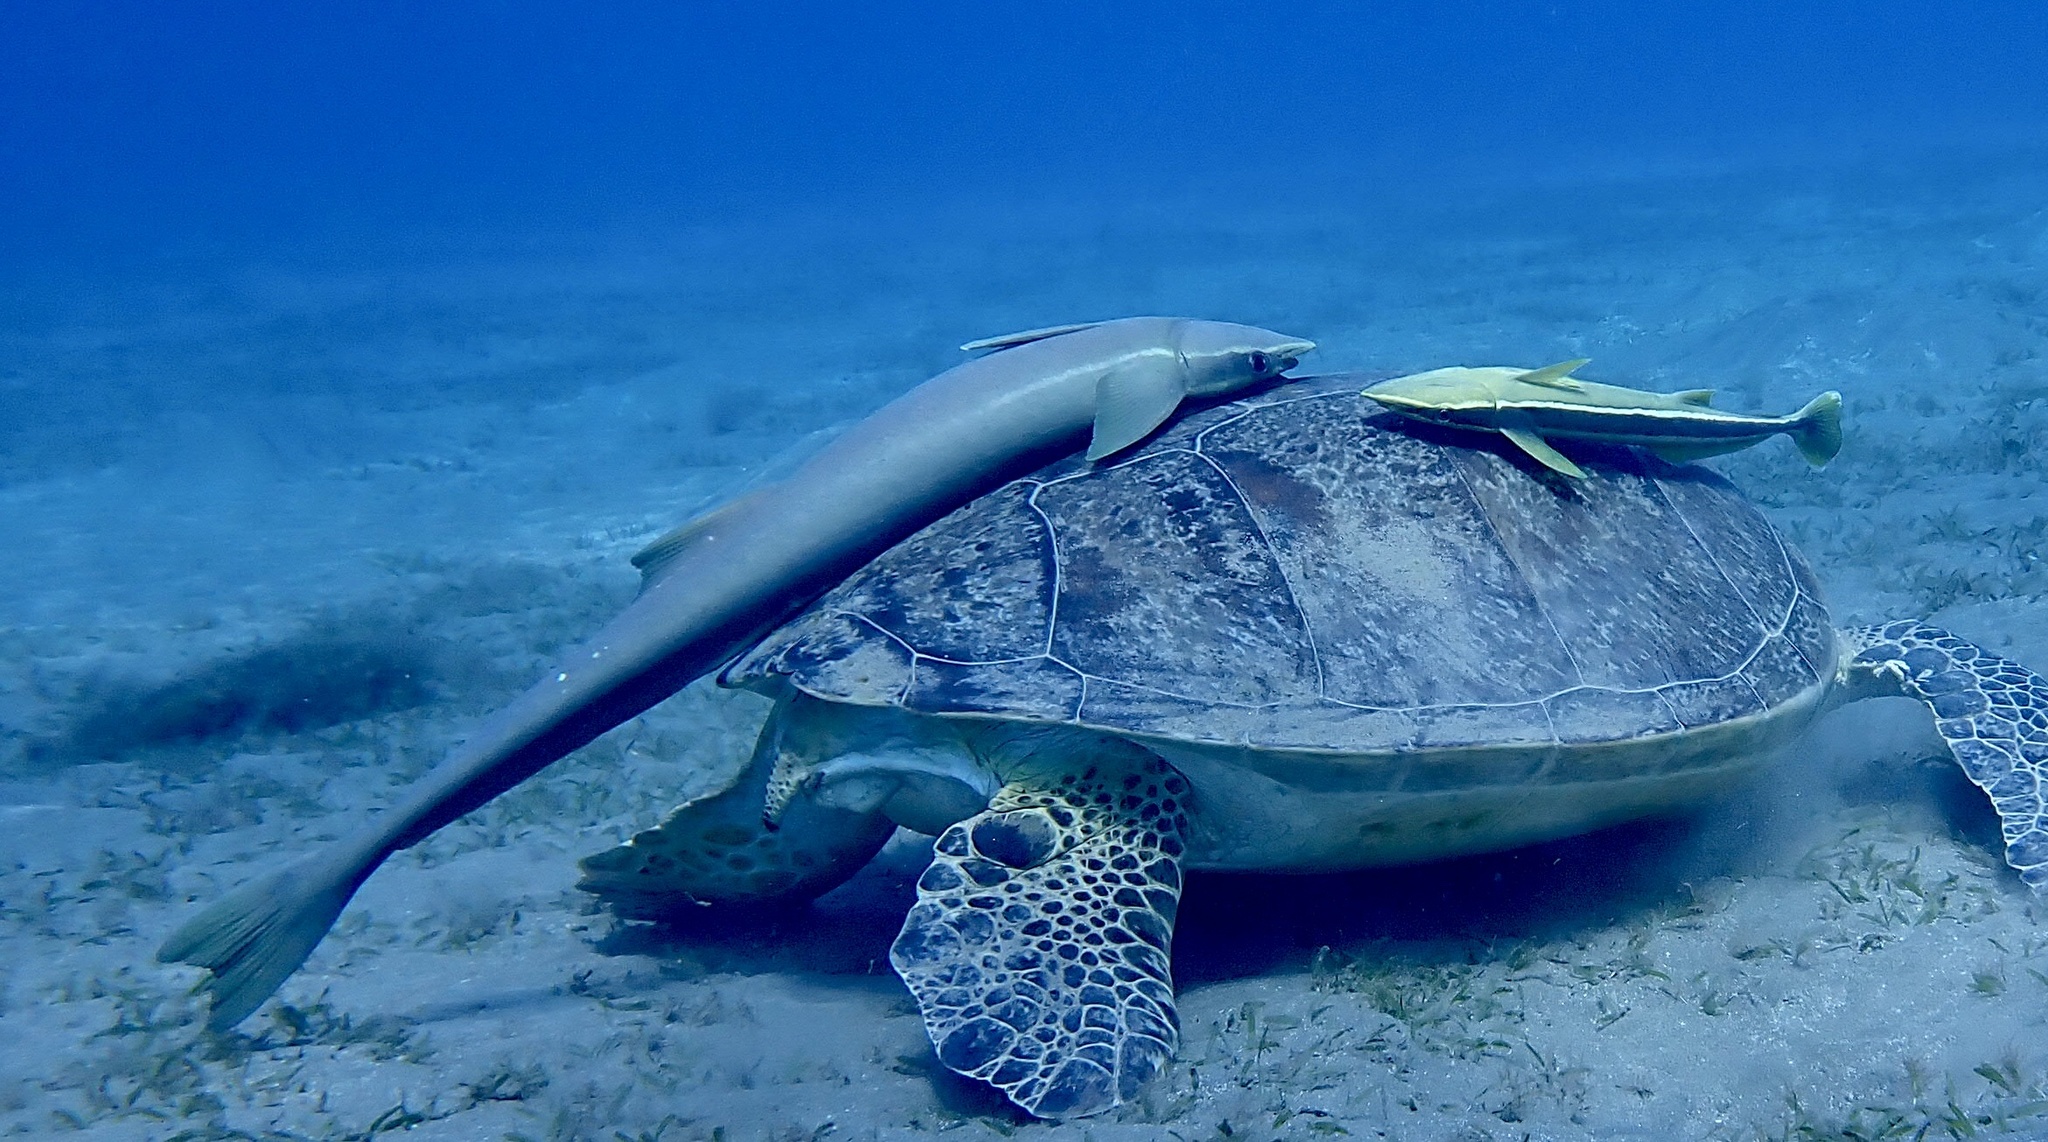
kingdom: Animalia
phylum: Chordata
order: Perciformes
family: Echeneidae
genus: Echeneis
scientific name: Echeneis naucrates
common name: Sharksucker
